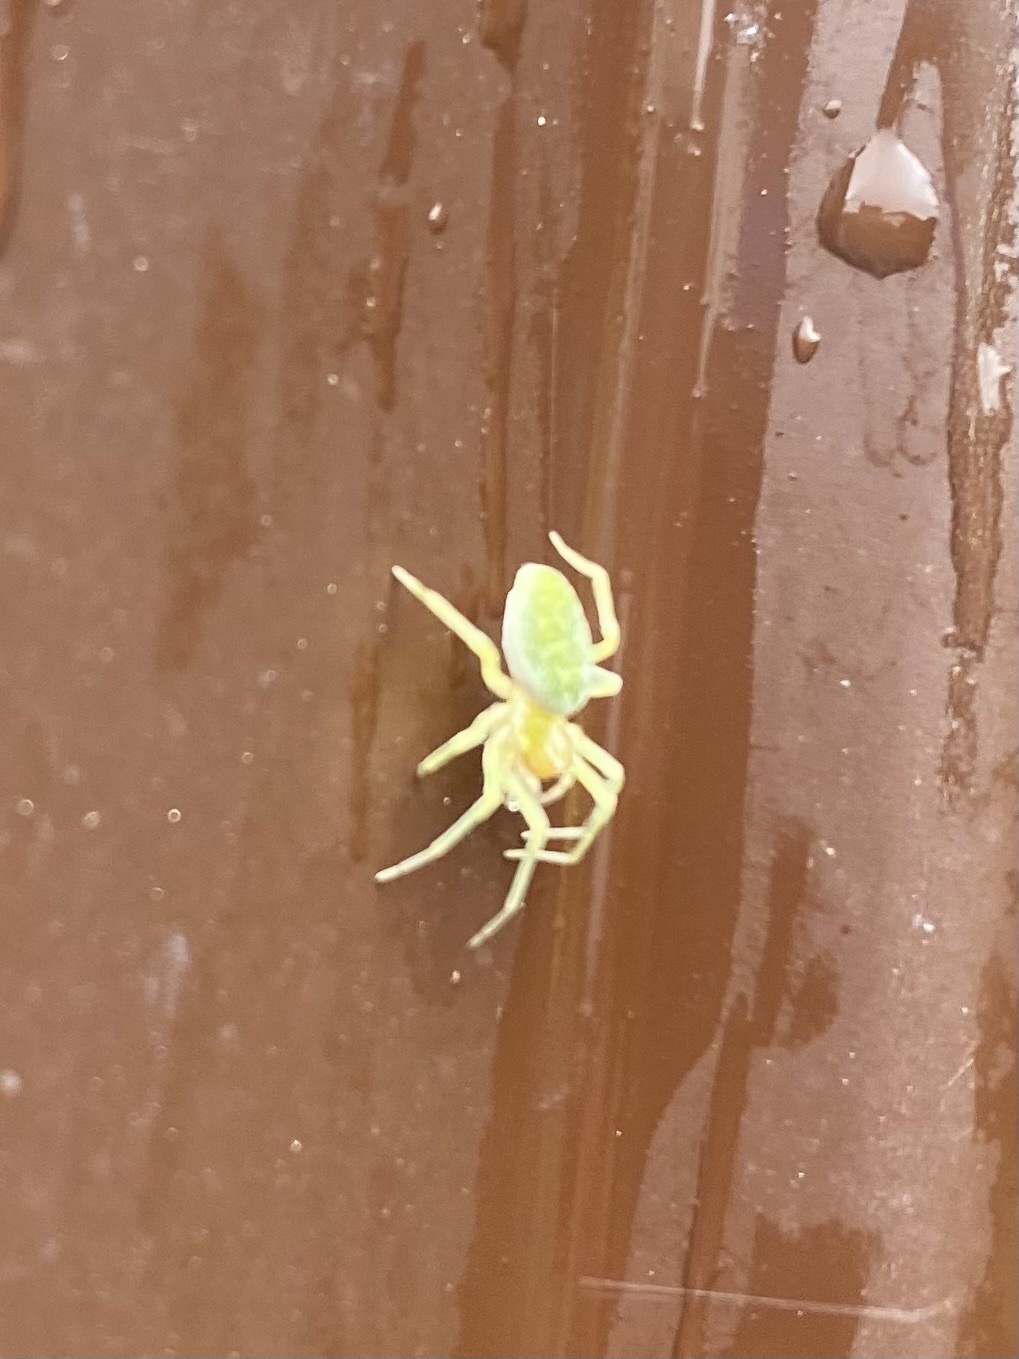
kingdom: Animalia
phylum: Arthropoda
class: Arachnida
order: Araneae
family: Dictynidae
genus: Nigma
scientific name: Nigma walckenaeri
